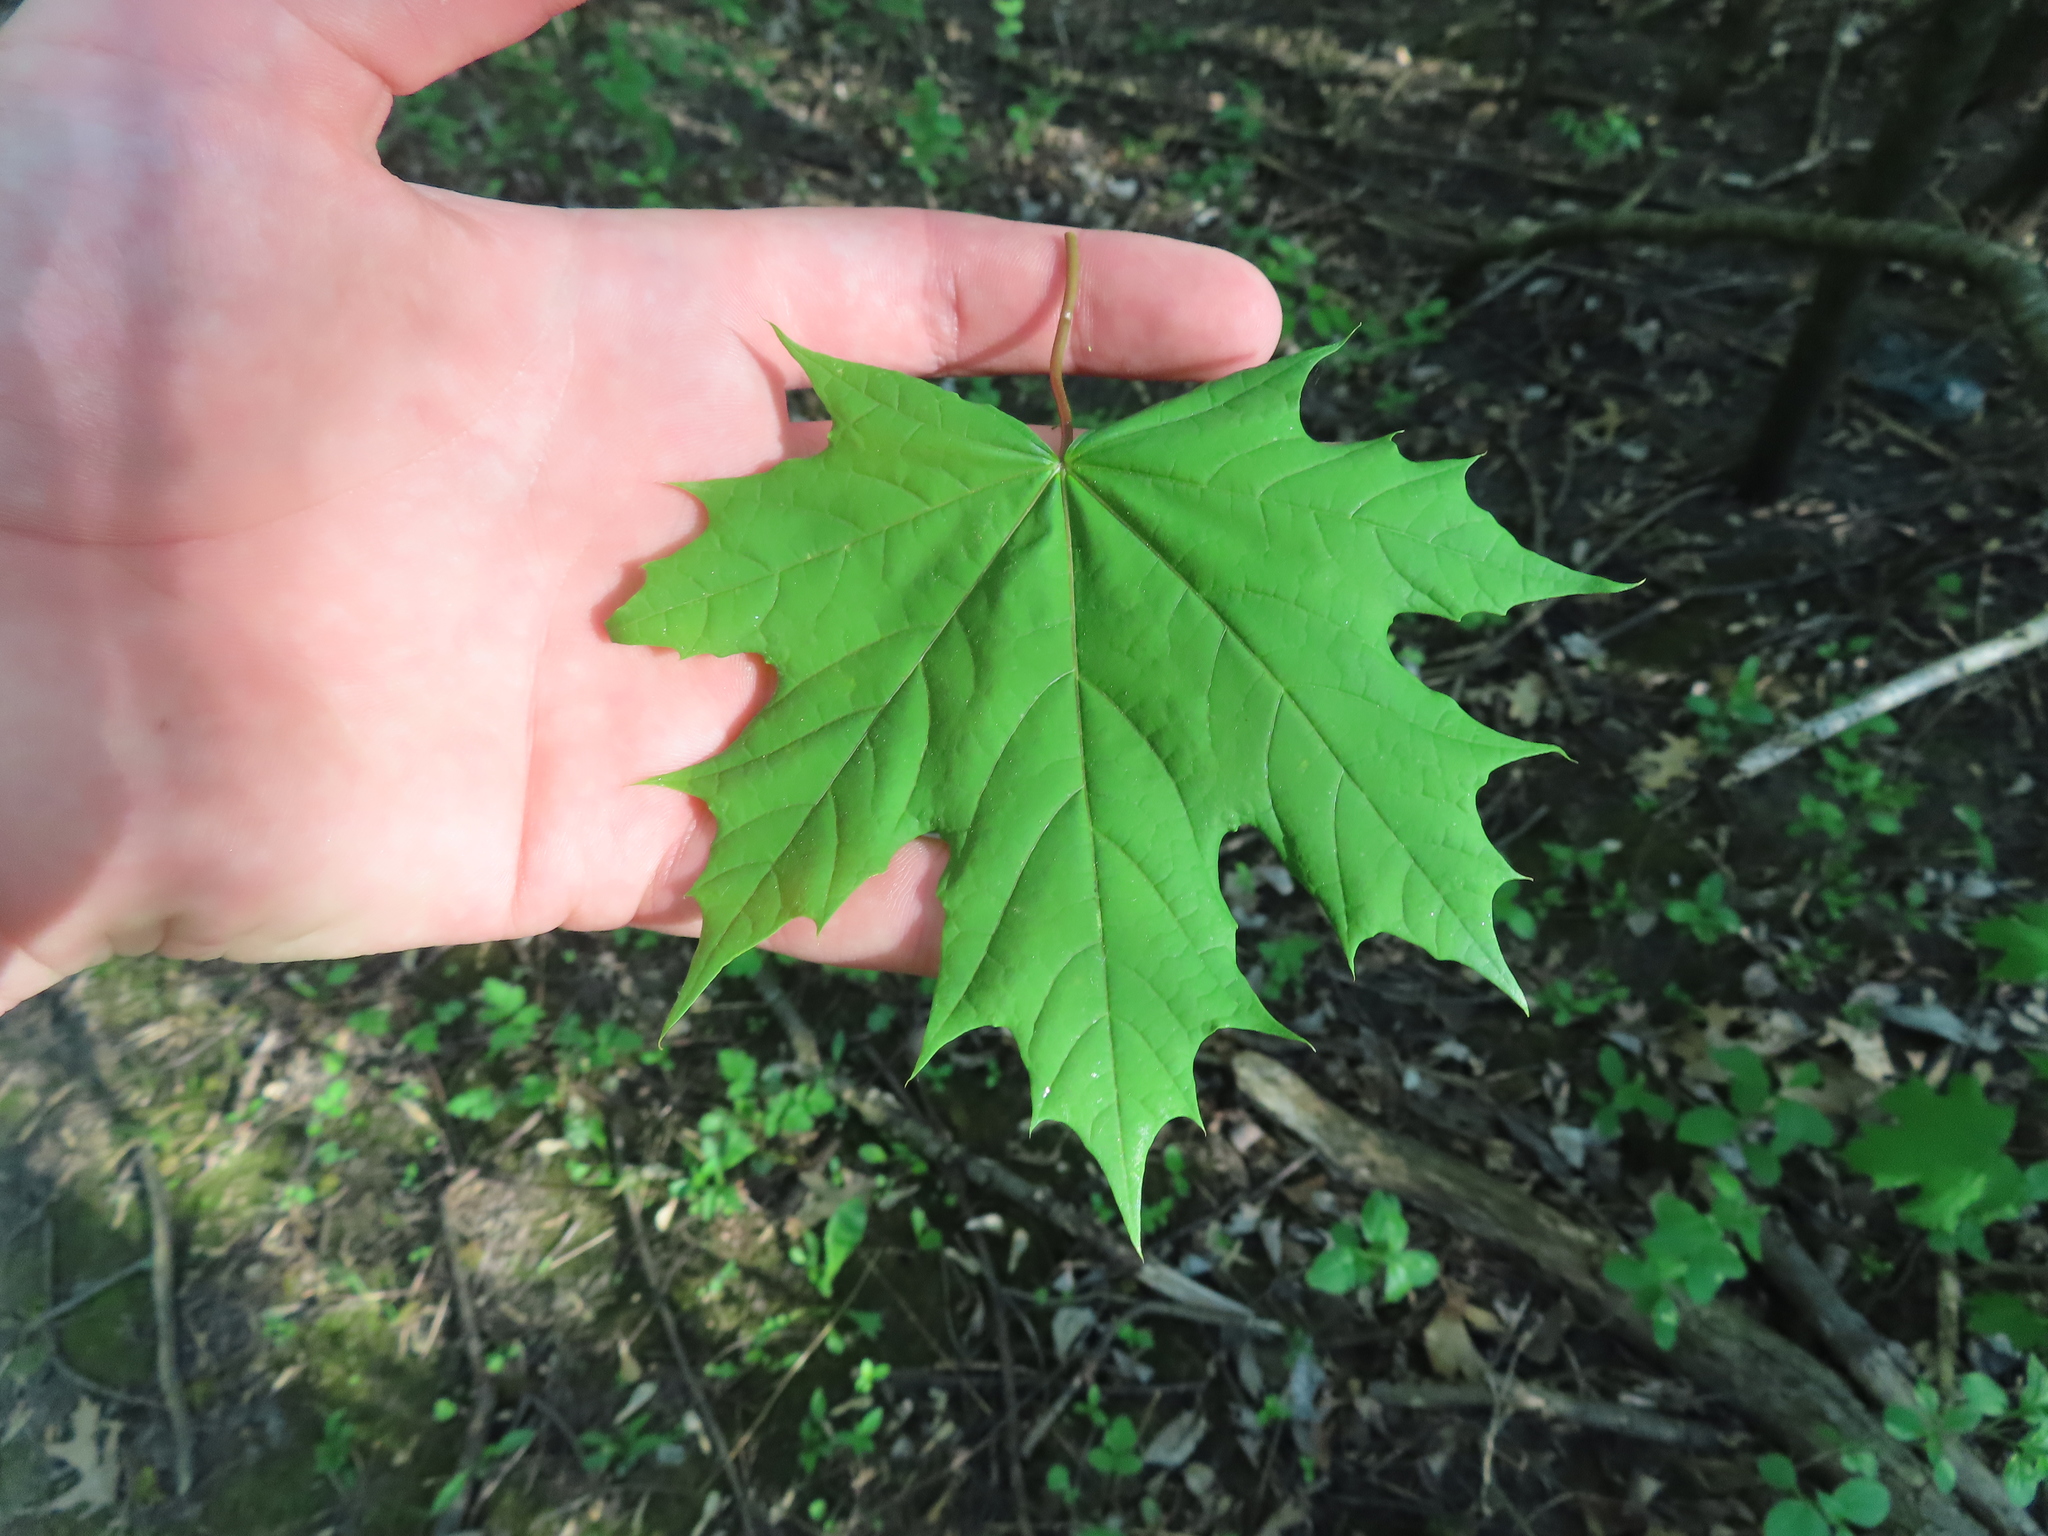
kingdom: Plantae
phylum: Tracheophyta
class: Magnoliopsida
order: Sapindales
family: Sapindaceae
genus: Acer
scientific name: Acer platanoides
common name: Norway maple
